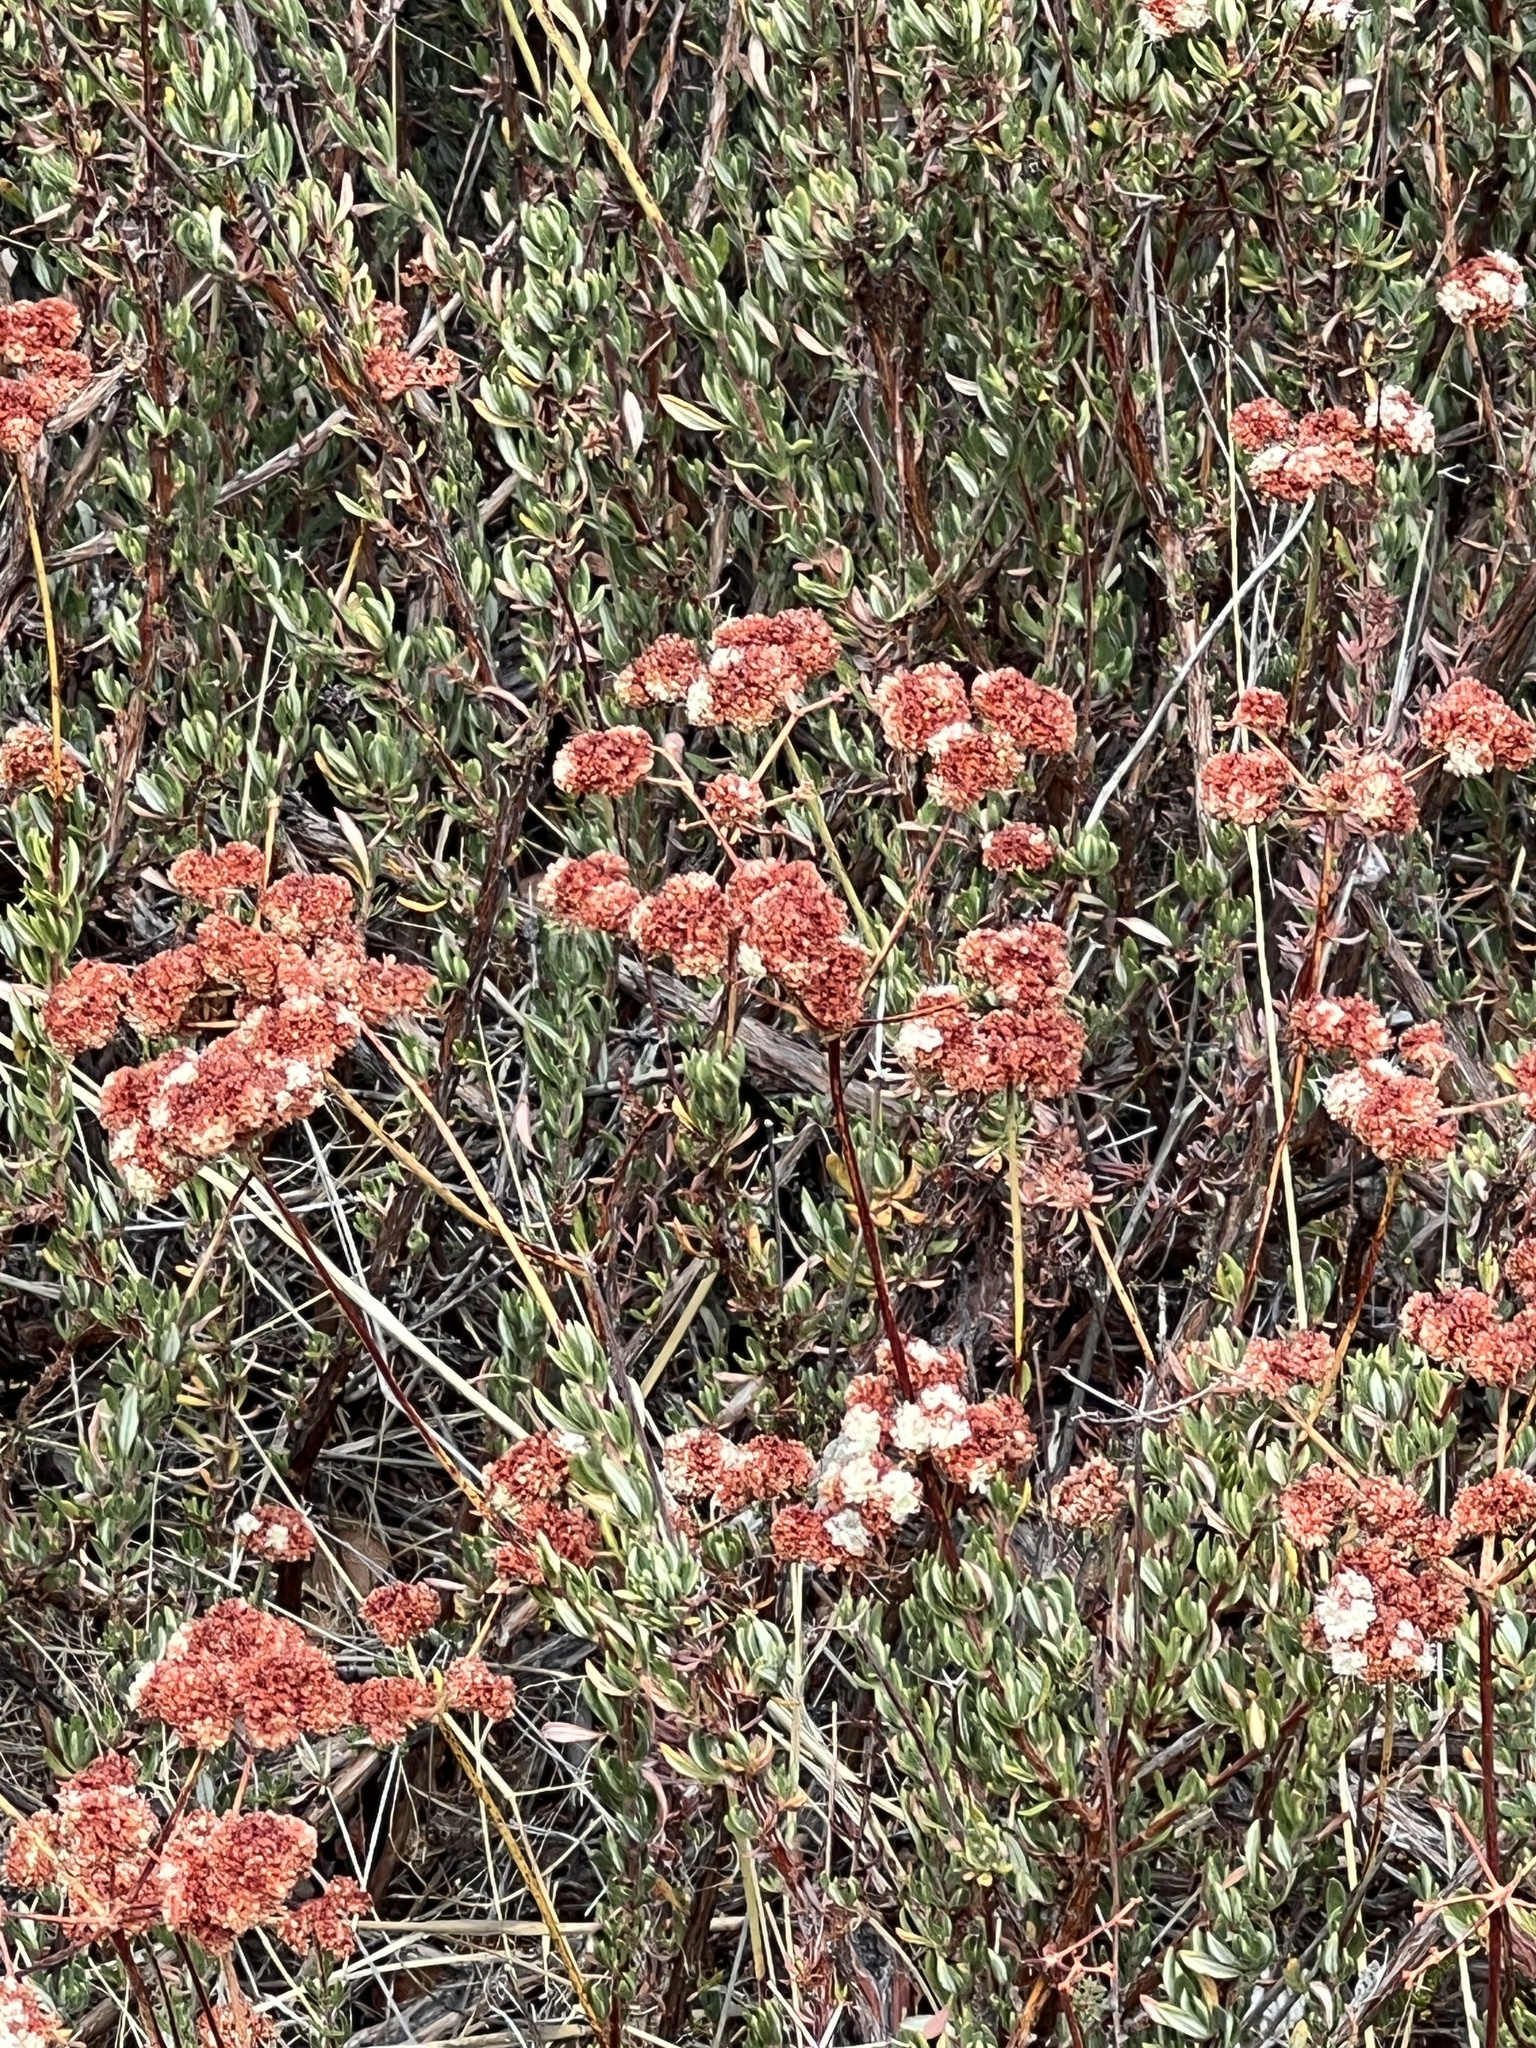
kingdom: Plantae
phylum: Tracheophyta
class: Magnoliopsida
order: Caryophyllales
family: Polygonaceae
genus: Eriogonum
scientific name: Eriogonum fasciculatum
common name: California wild buckwheat
